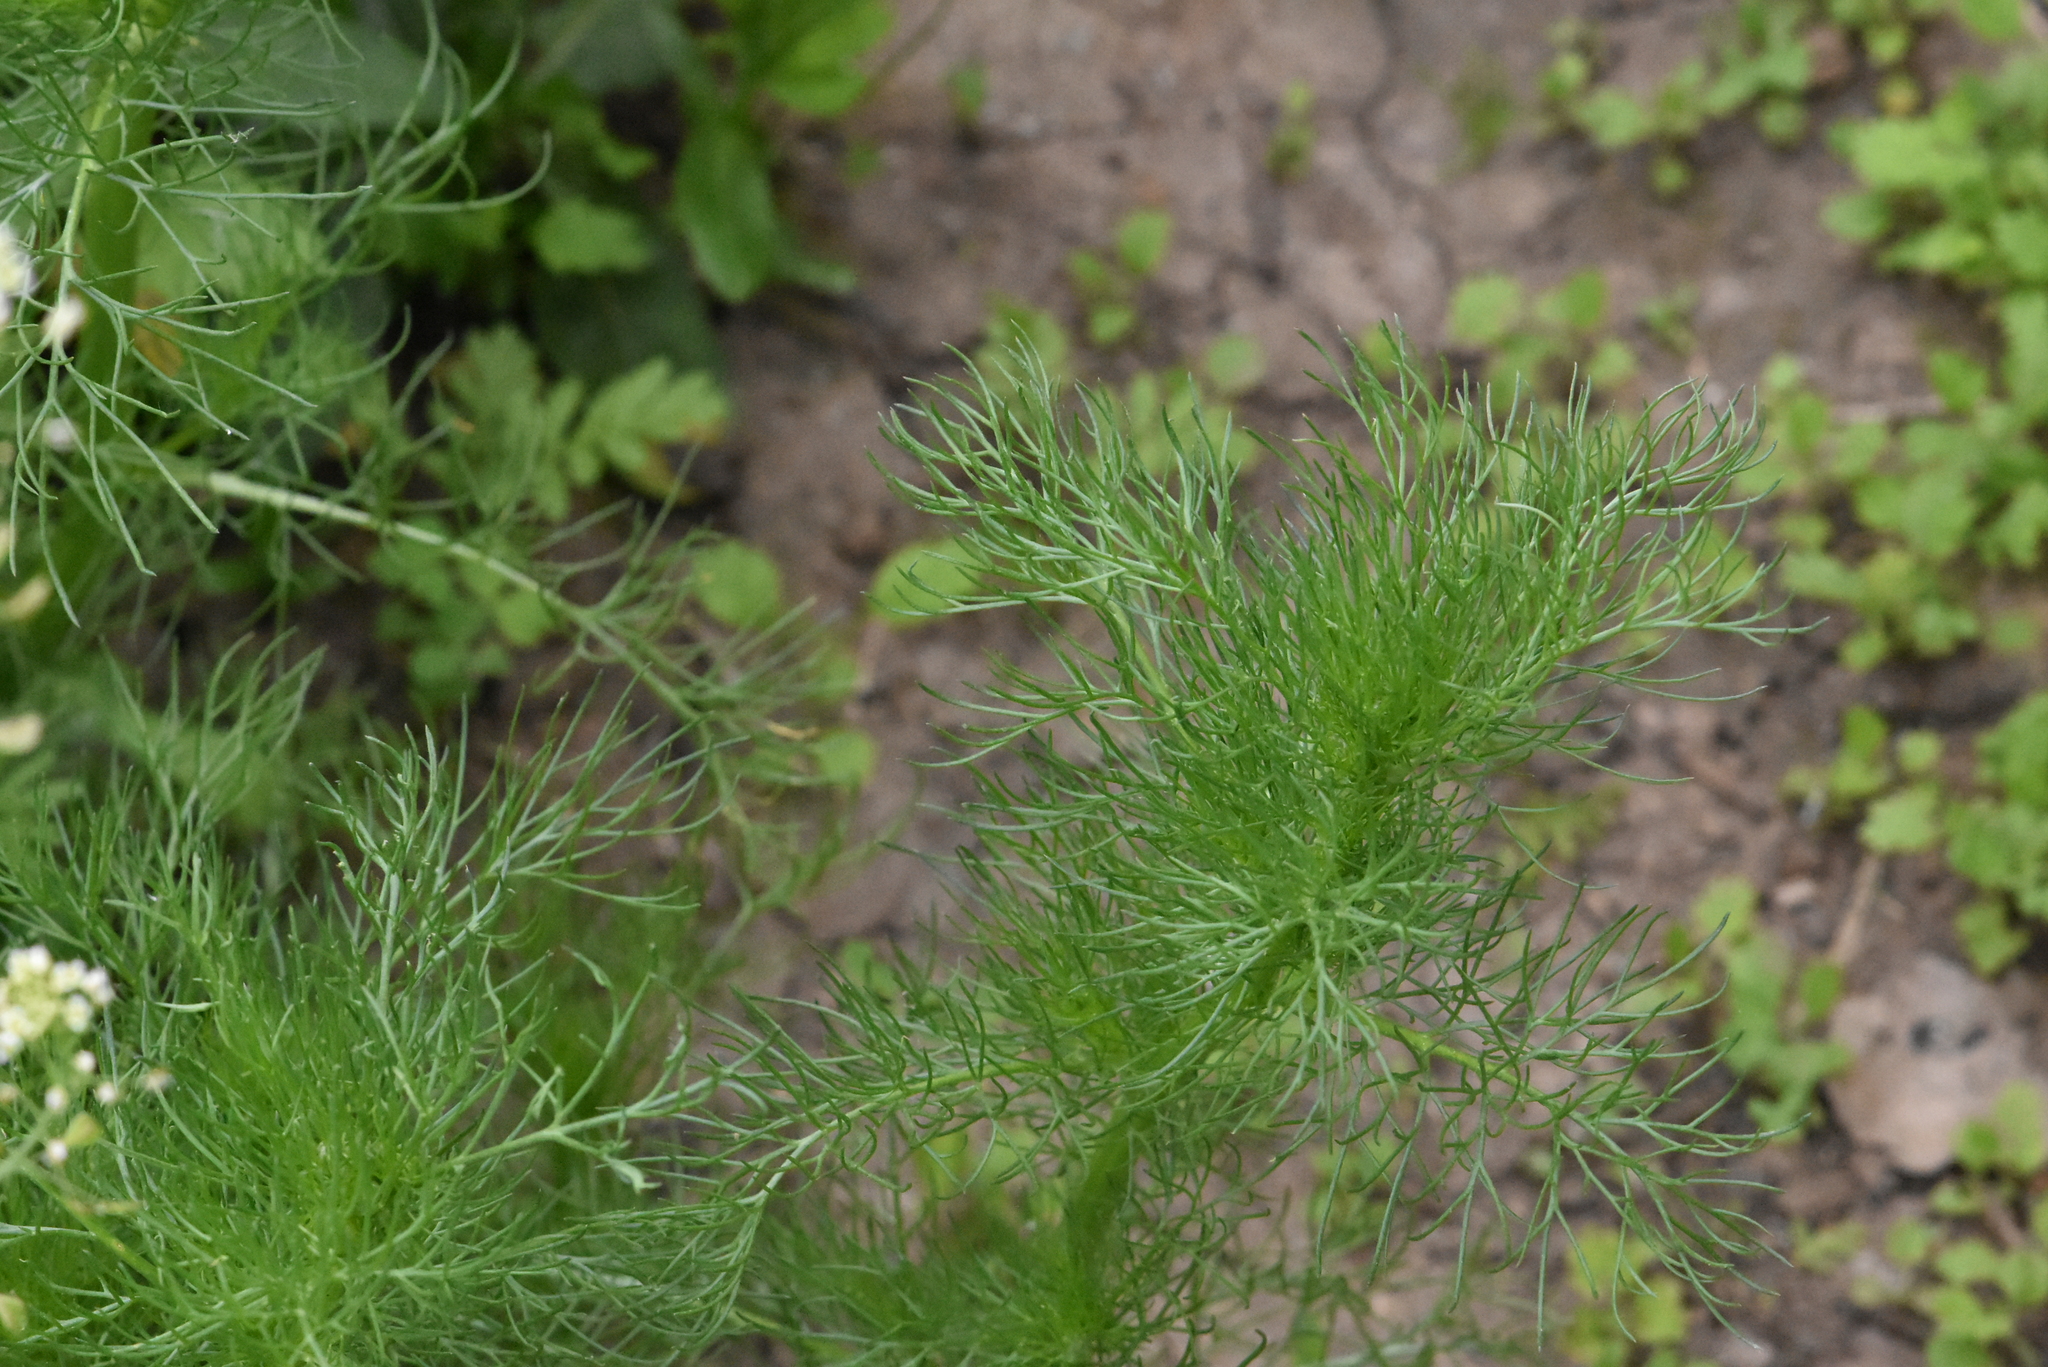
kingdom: Plantae
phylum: Tracheophyta
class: Magnoliopsida
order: Asterales
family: Asteraceae
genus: Tripleurospermum
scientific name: Tripleurospermum inodorum
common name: Scentless mayweed
